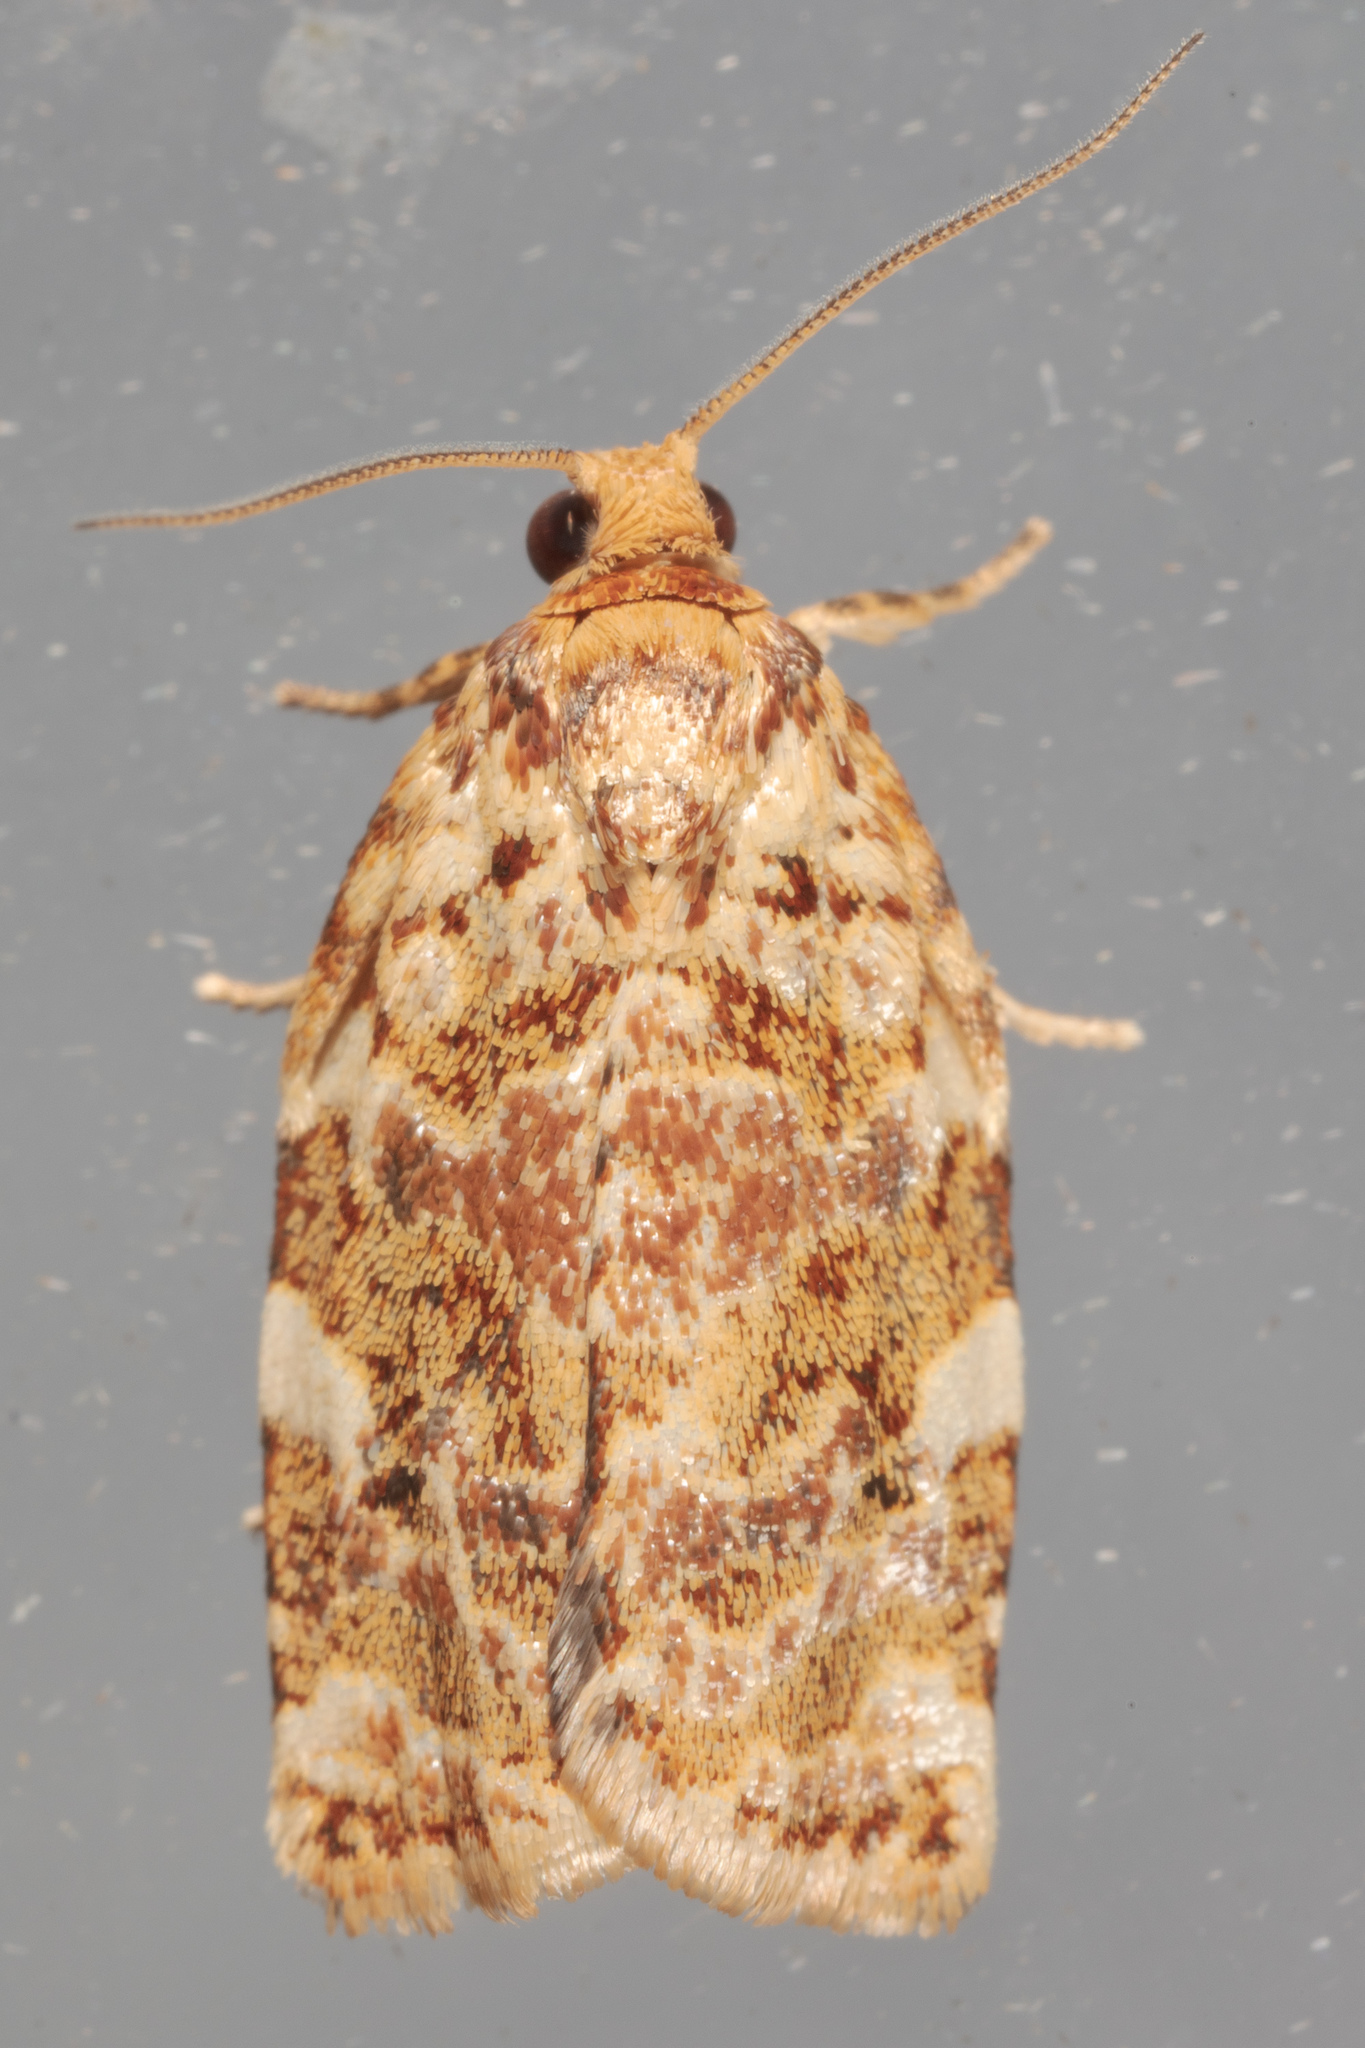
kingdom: Animalia
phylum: Arthropoda
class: Insecta
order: Lepidoptera
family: Tortricidae
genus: Archips
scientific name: Archips argyrospila
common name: Fruit-tree leafroller moth
